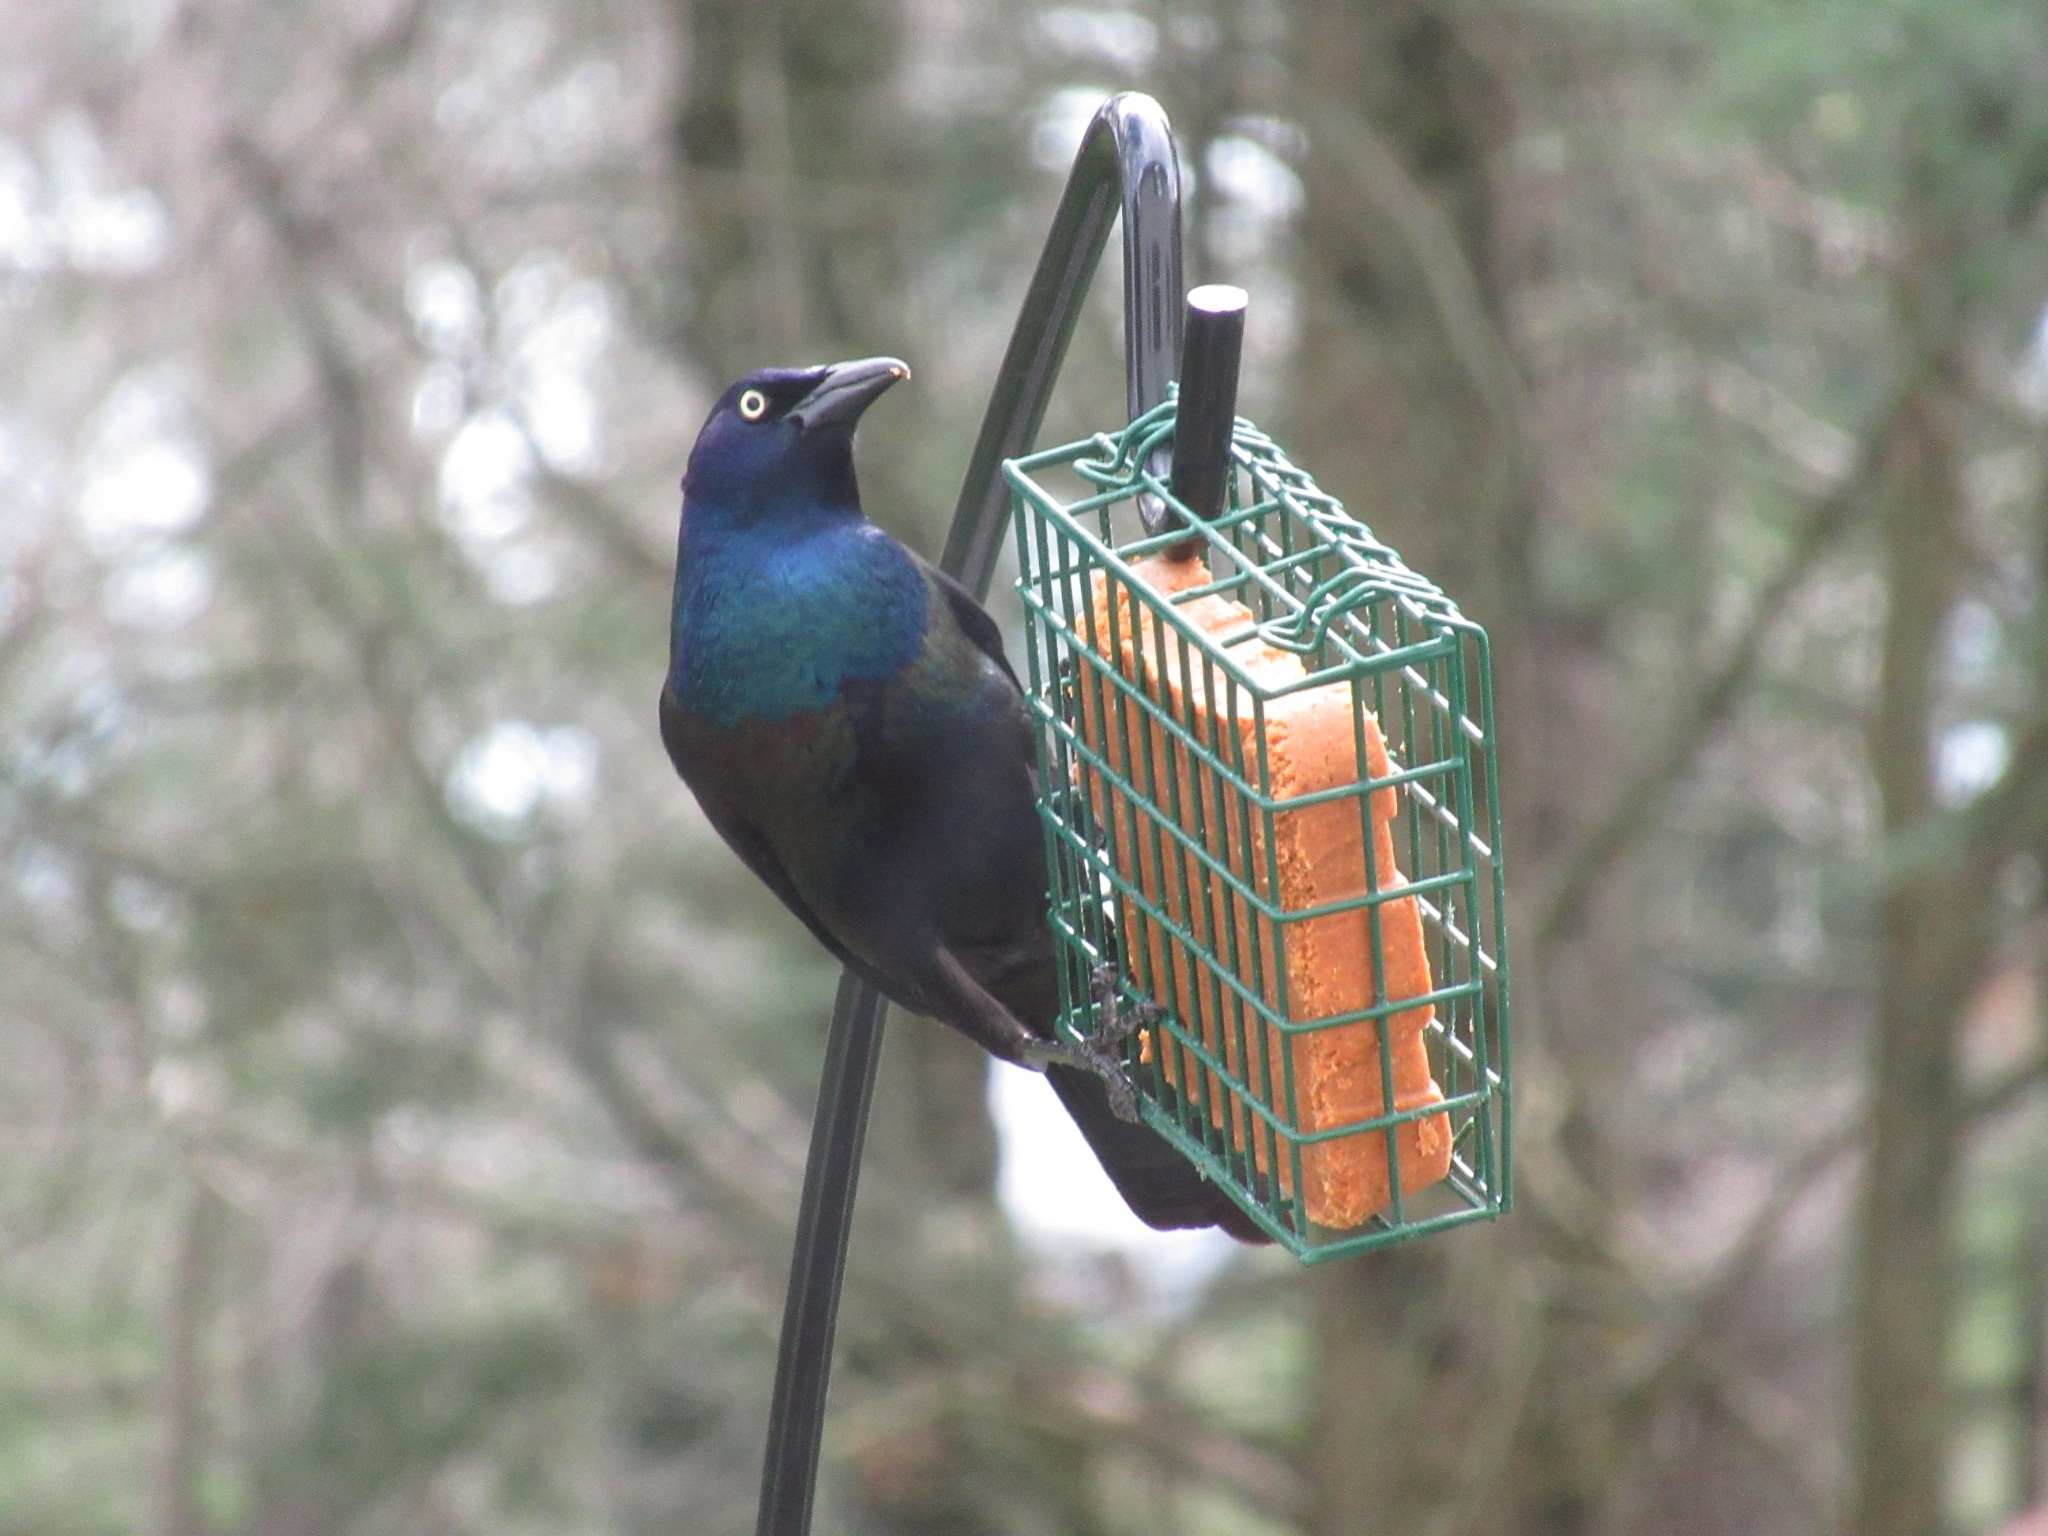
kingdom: Animalia
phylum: Chordata
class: Aves
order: Passeriformes
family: Icteridae
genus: Quiscalus
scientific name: Quiscalus quiscula
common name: Common grackle
